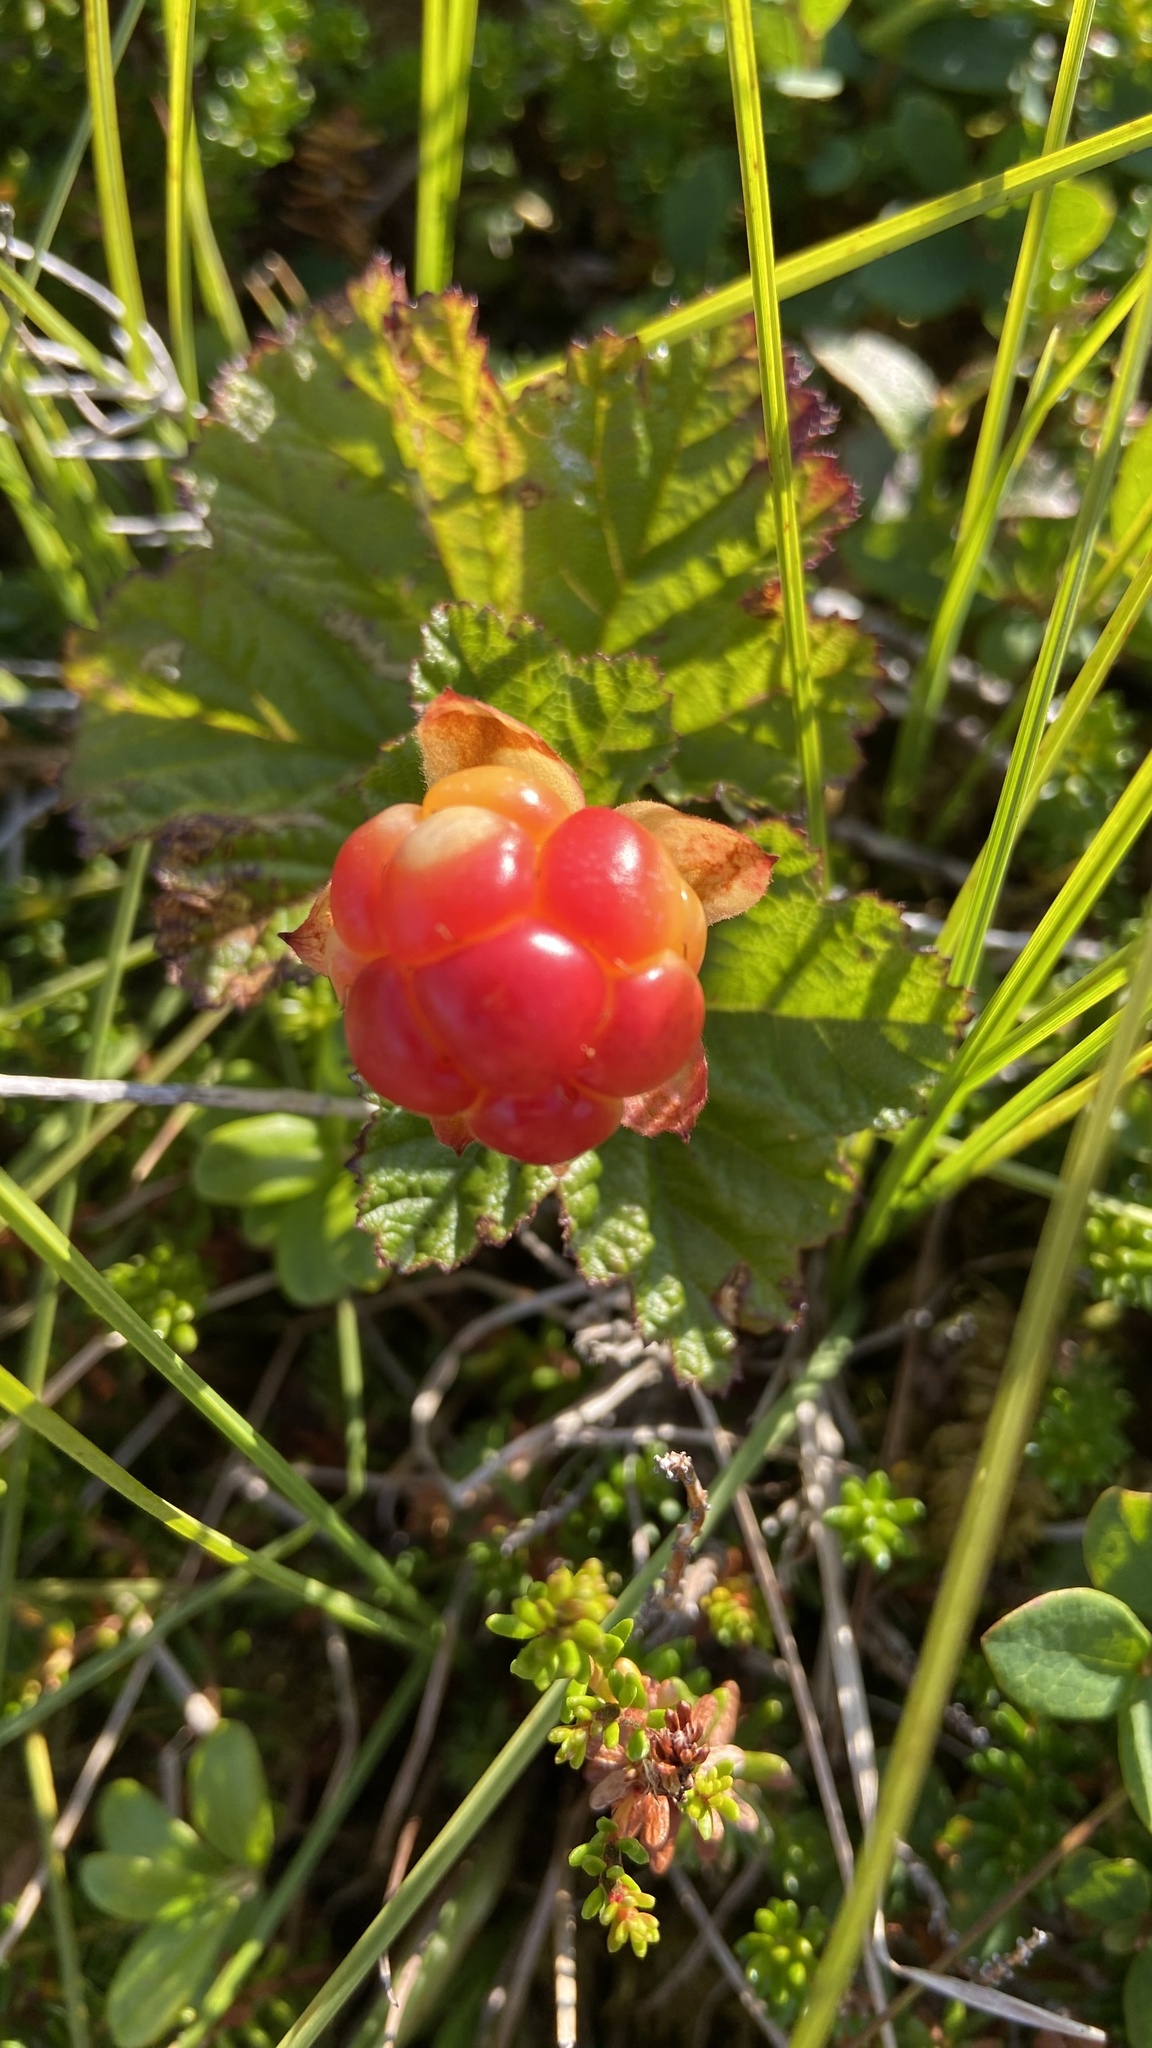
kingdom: Plantae
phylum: Tracheophyta
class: Magnoliopsida
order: Rosales
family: Rosaceae
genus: Rubus
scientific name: Rubus chamaemorus
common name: Cloudberry
